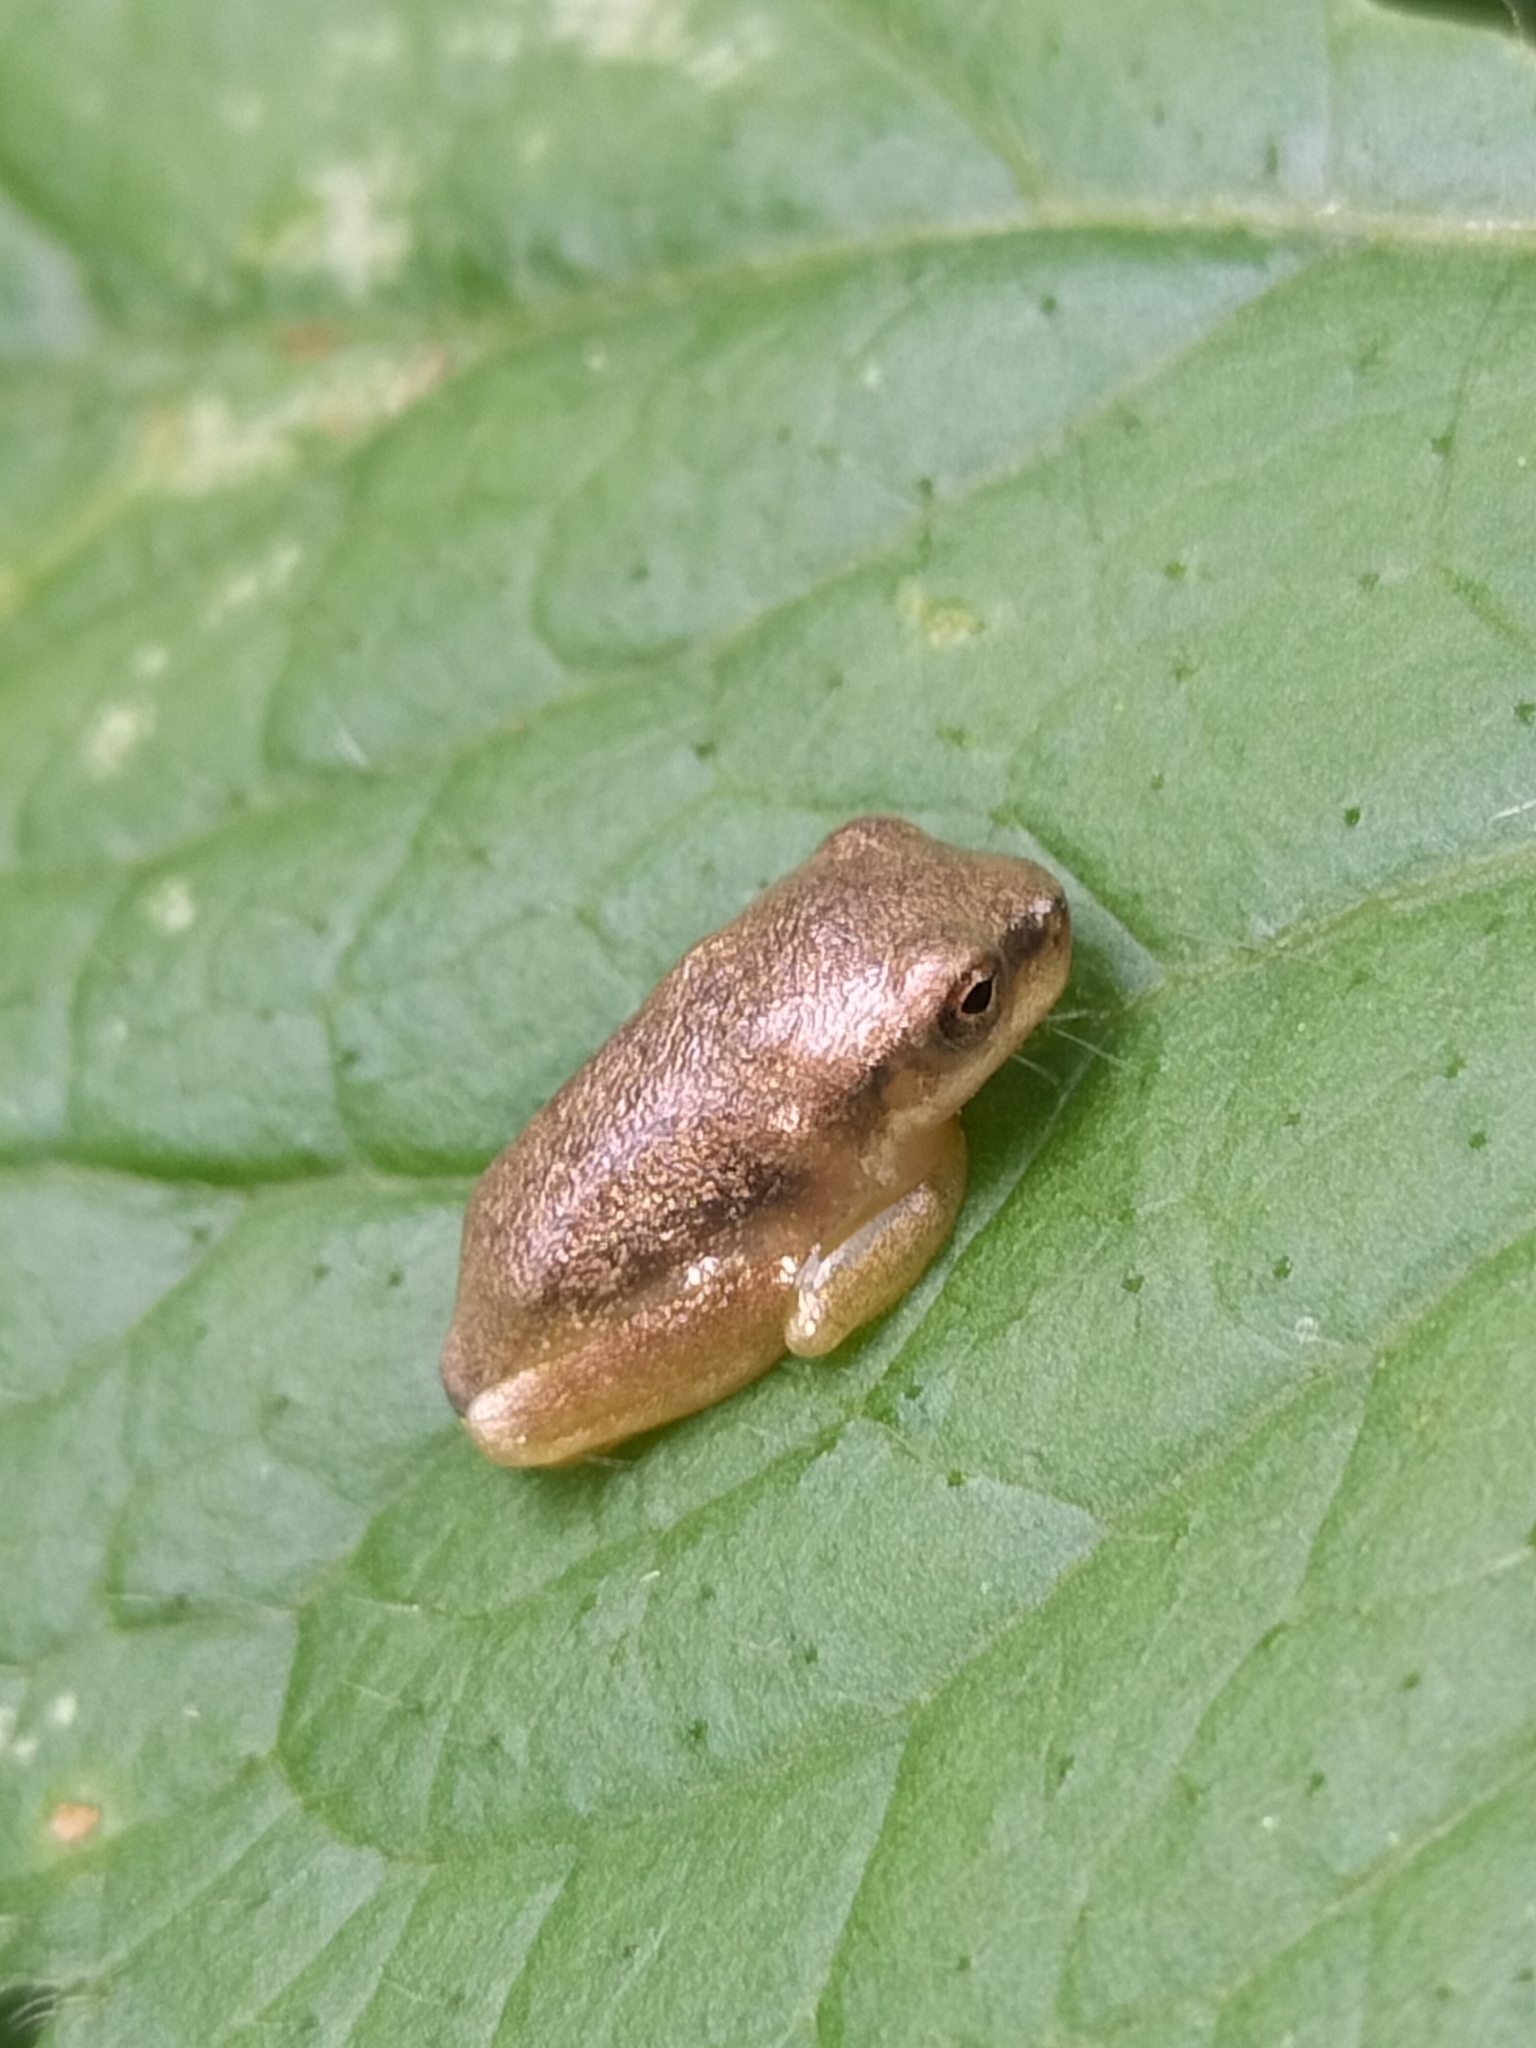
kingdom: Animalia
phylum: Chordata
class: Amphibia
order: Anura
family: Pelodryadidae
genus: Ranoidea
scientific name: Ranoidea gracilenta
